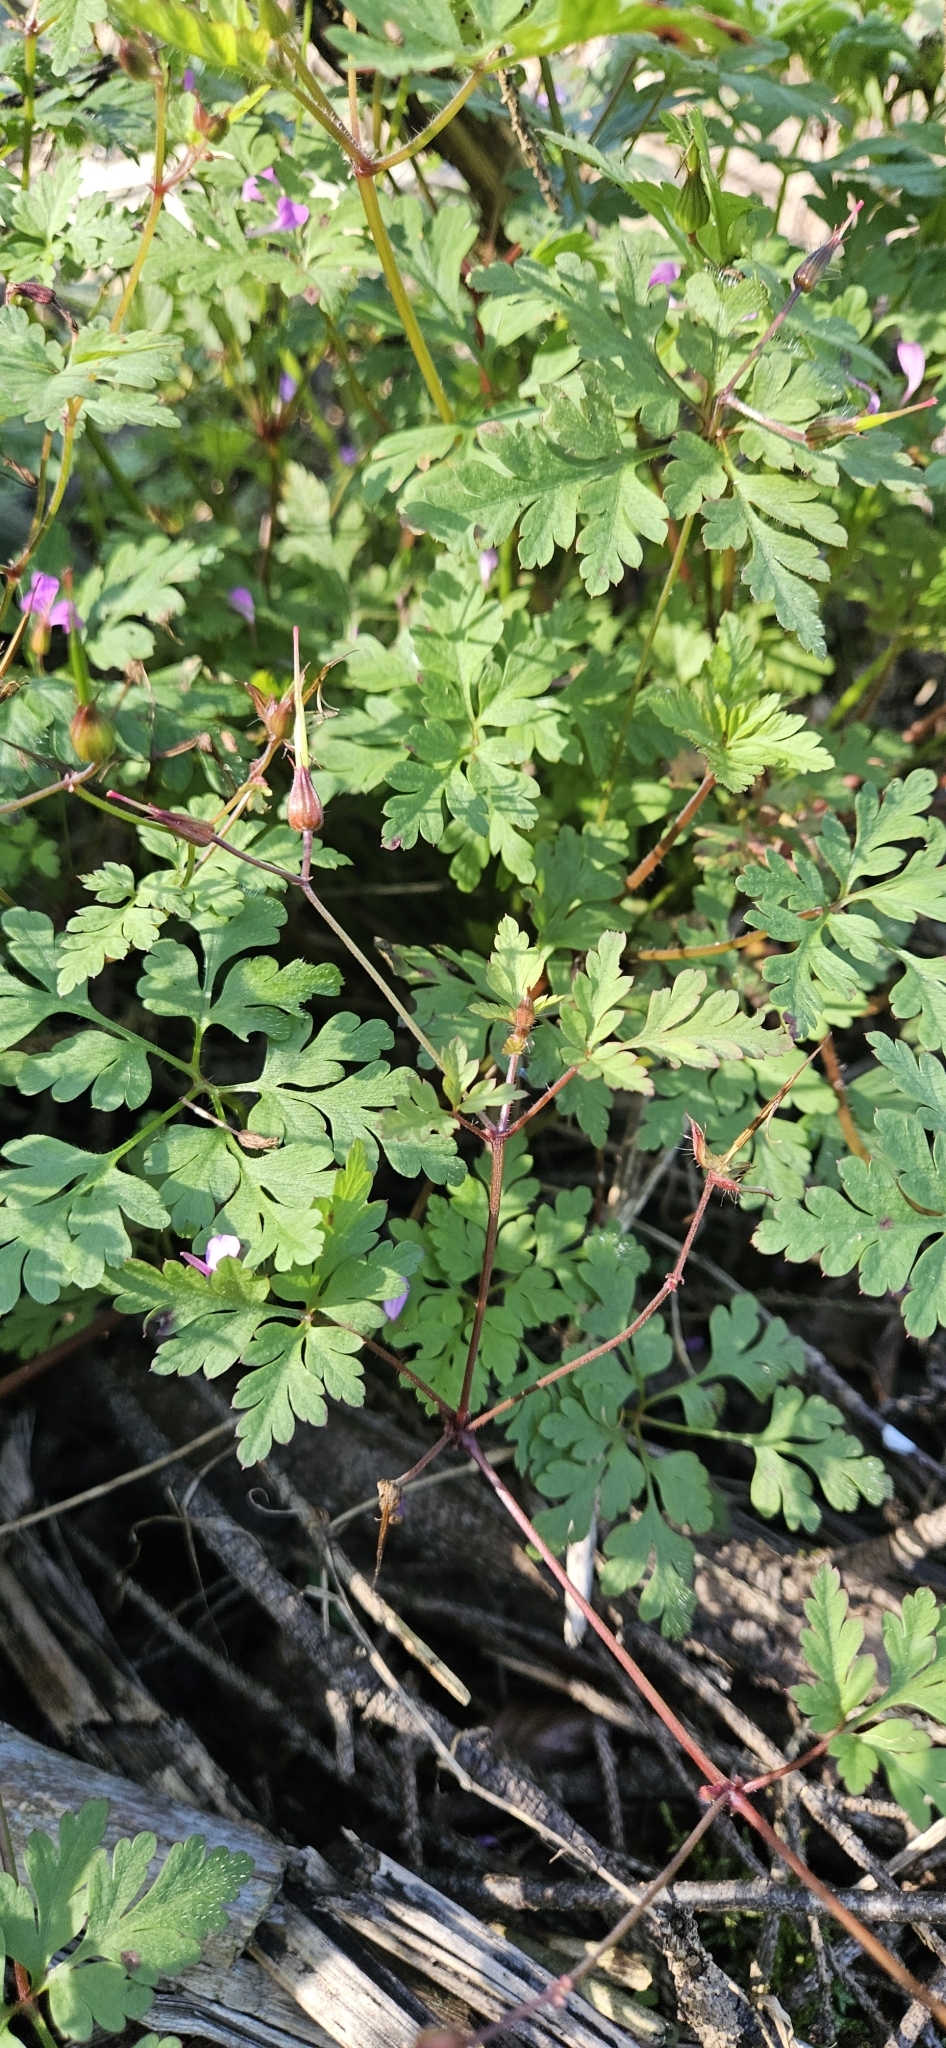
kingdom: Plantae
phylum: Tracheophyta
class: Magnoliopsida
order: Geraniales
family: Geraniaceae
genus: Geranium
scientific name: Geranium robertianum
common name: Herb-robert
